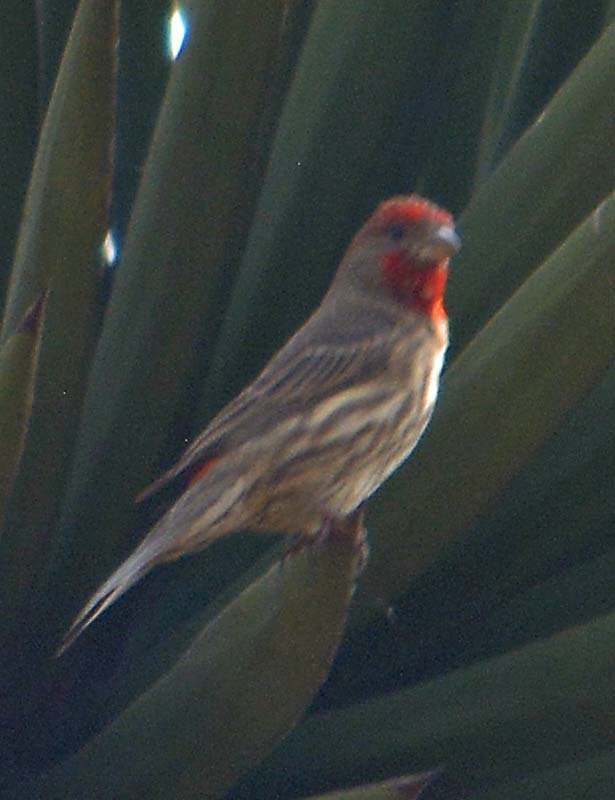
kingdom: Animalia
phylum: Chordata
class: Aves
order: Passeriformes
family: Fringillidae
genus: Haemorhous
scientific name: Haemorhous mexicanus
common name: House finch
